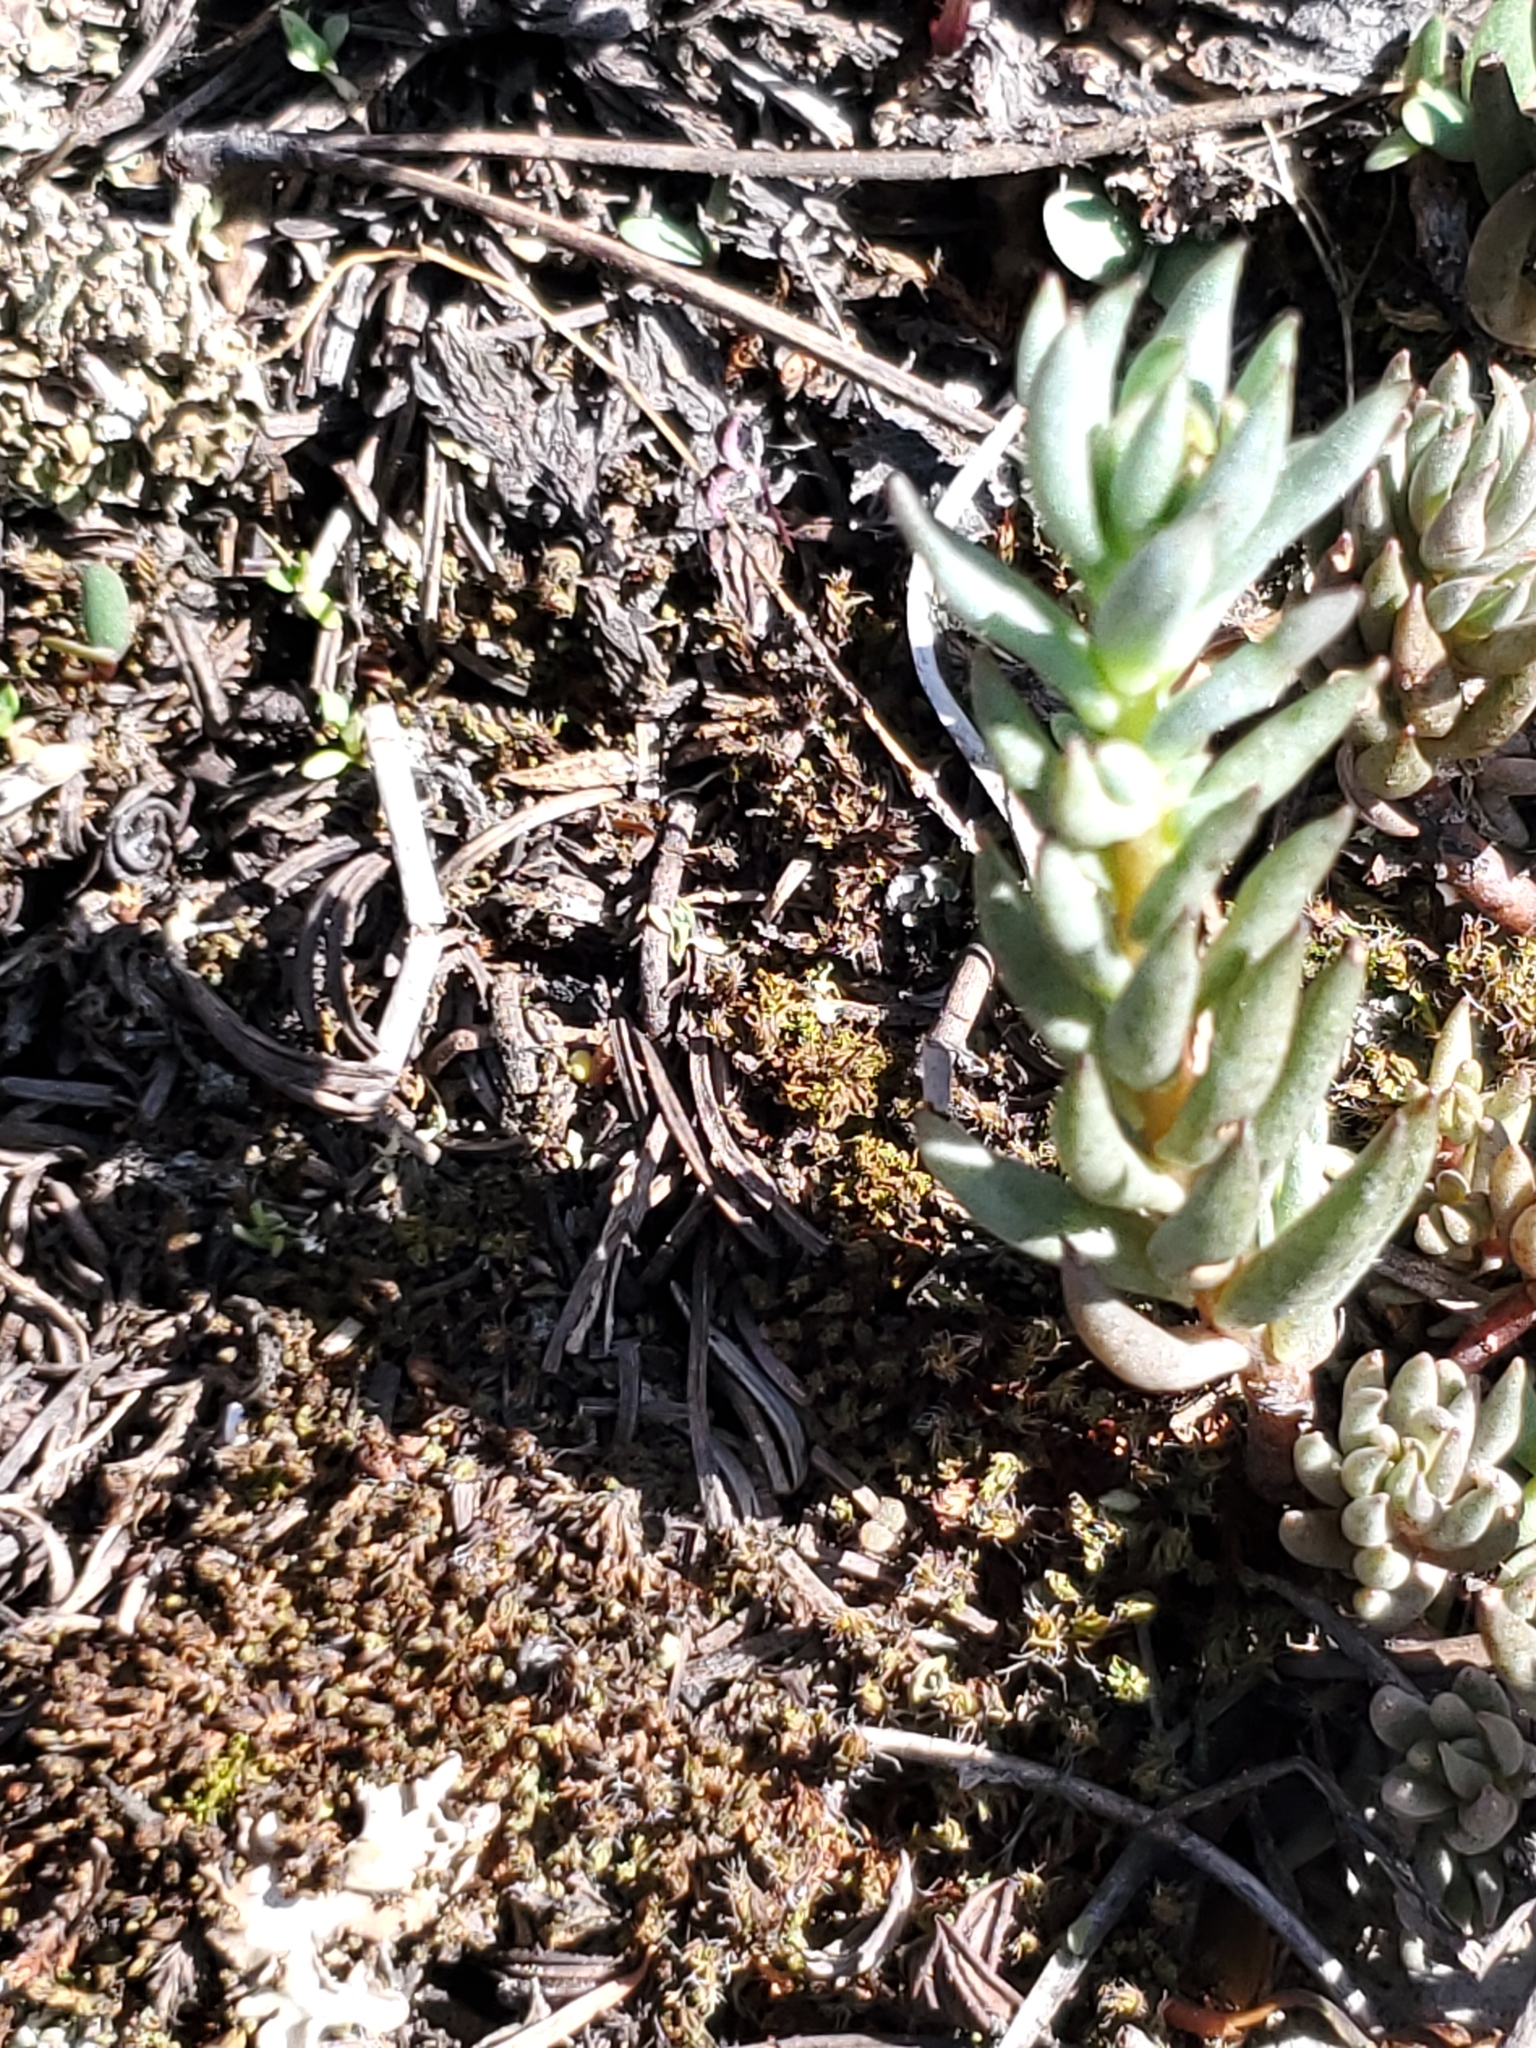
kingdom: Plantae
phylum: Tracheophyta
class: Magnoliopsida
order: Saxifragales
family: Crassulaceae
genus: Sedum
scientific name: Sedum lanceolatum
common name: Common stonecrop
